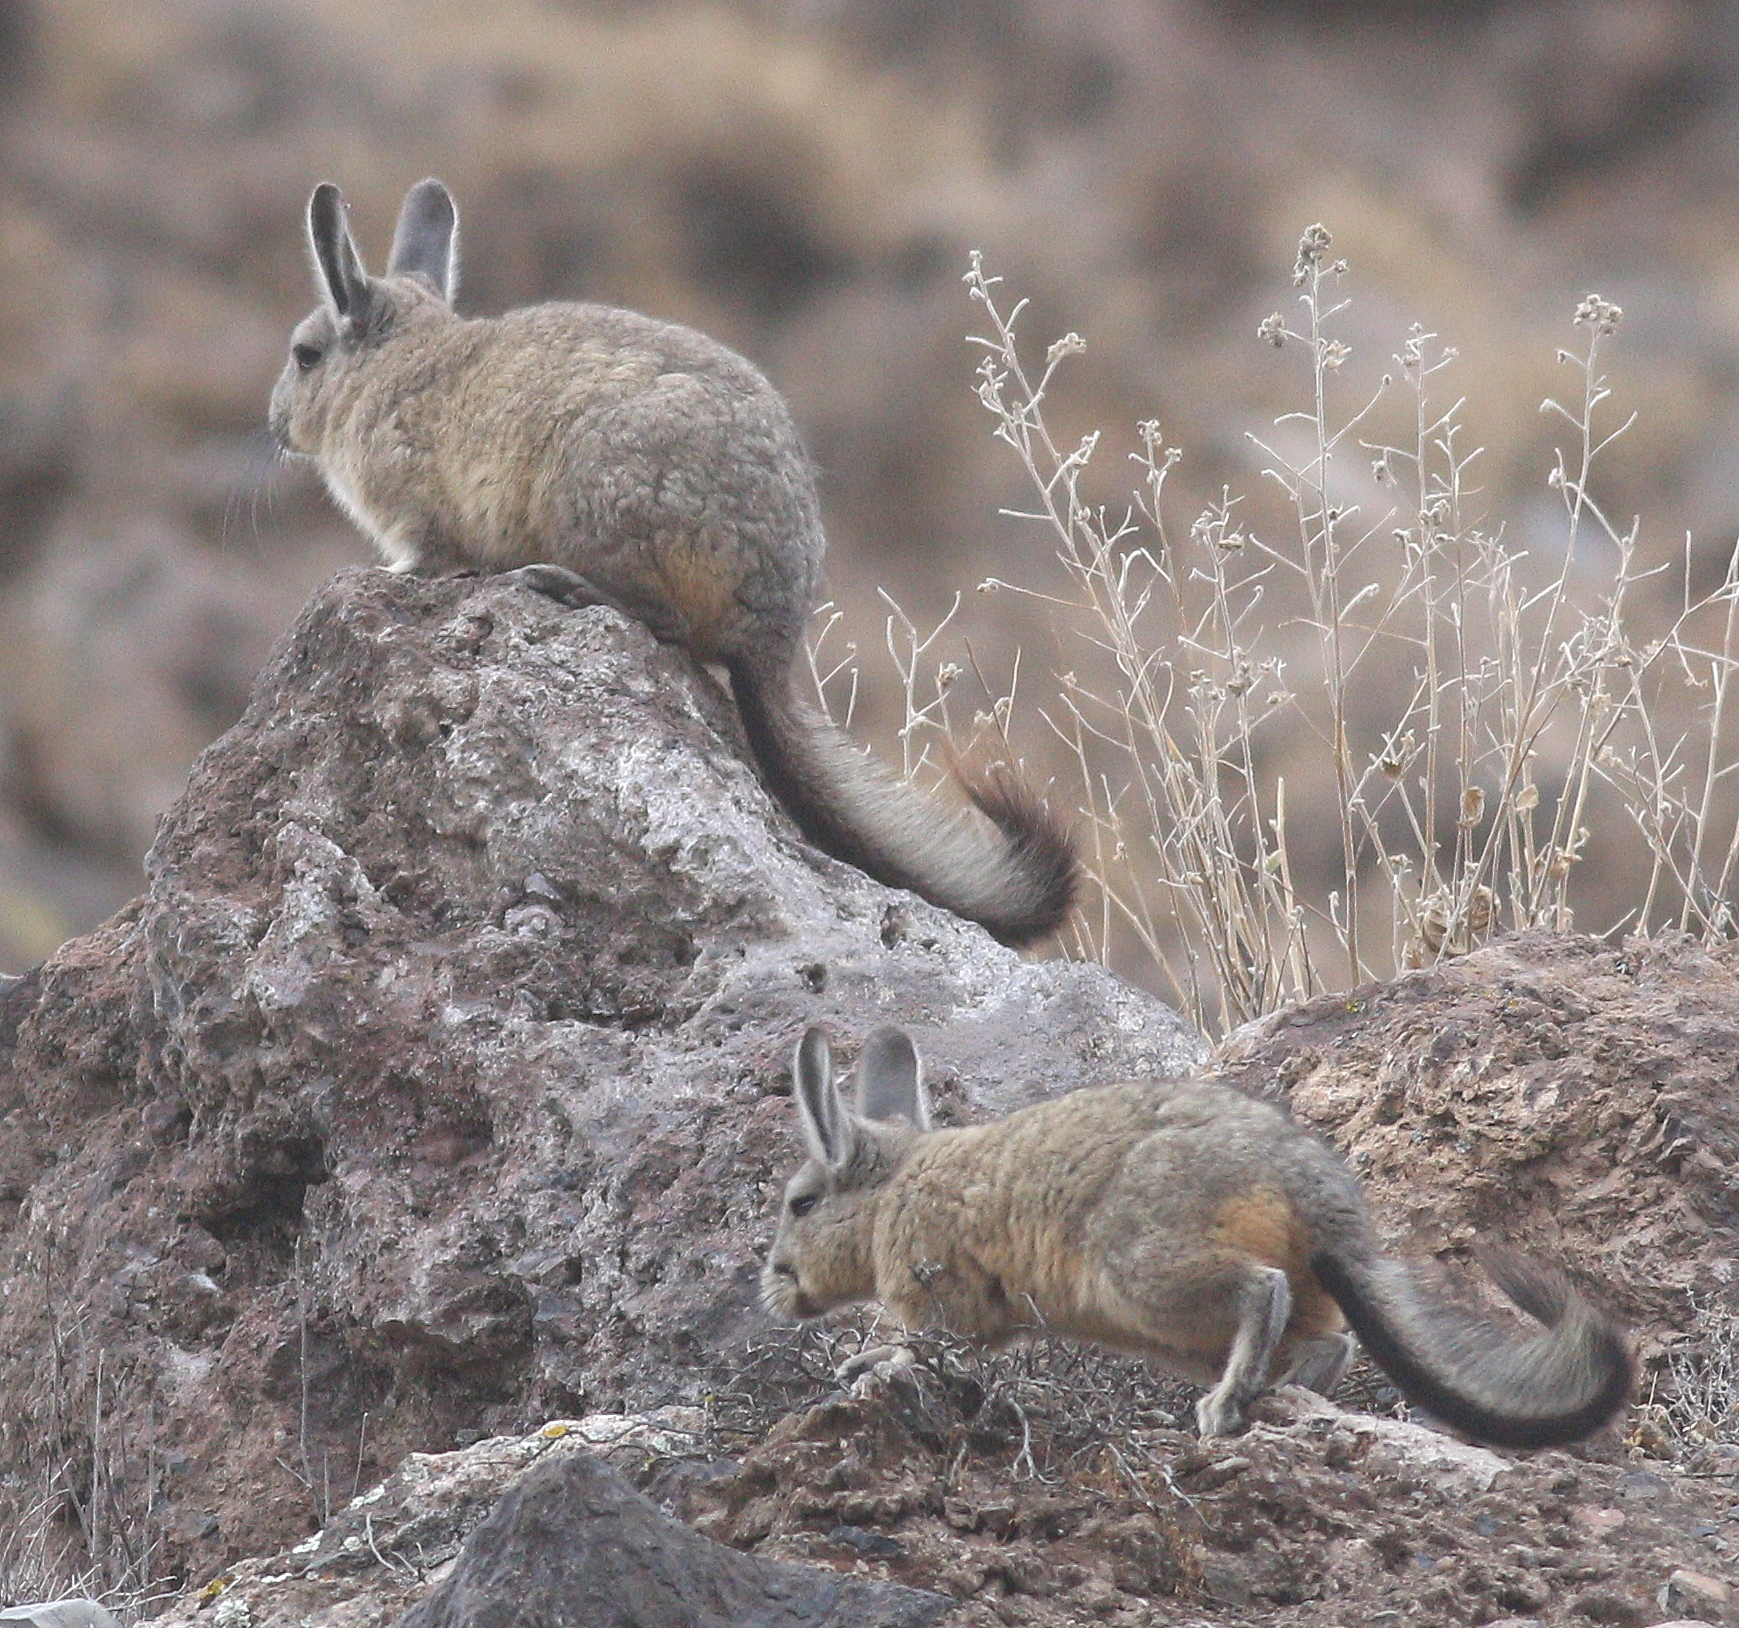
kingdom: Animalia
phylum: Chordata
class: Mammalia
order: Rodentia
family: Chinchillidae
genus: Lagidium
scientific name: Lagidium viscacia
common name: Southern viscacha
